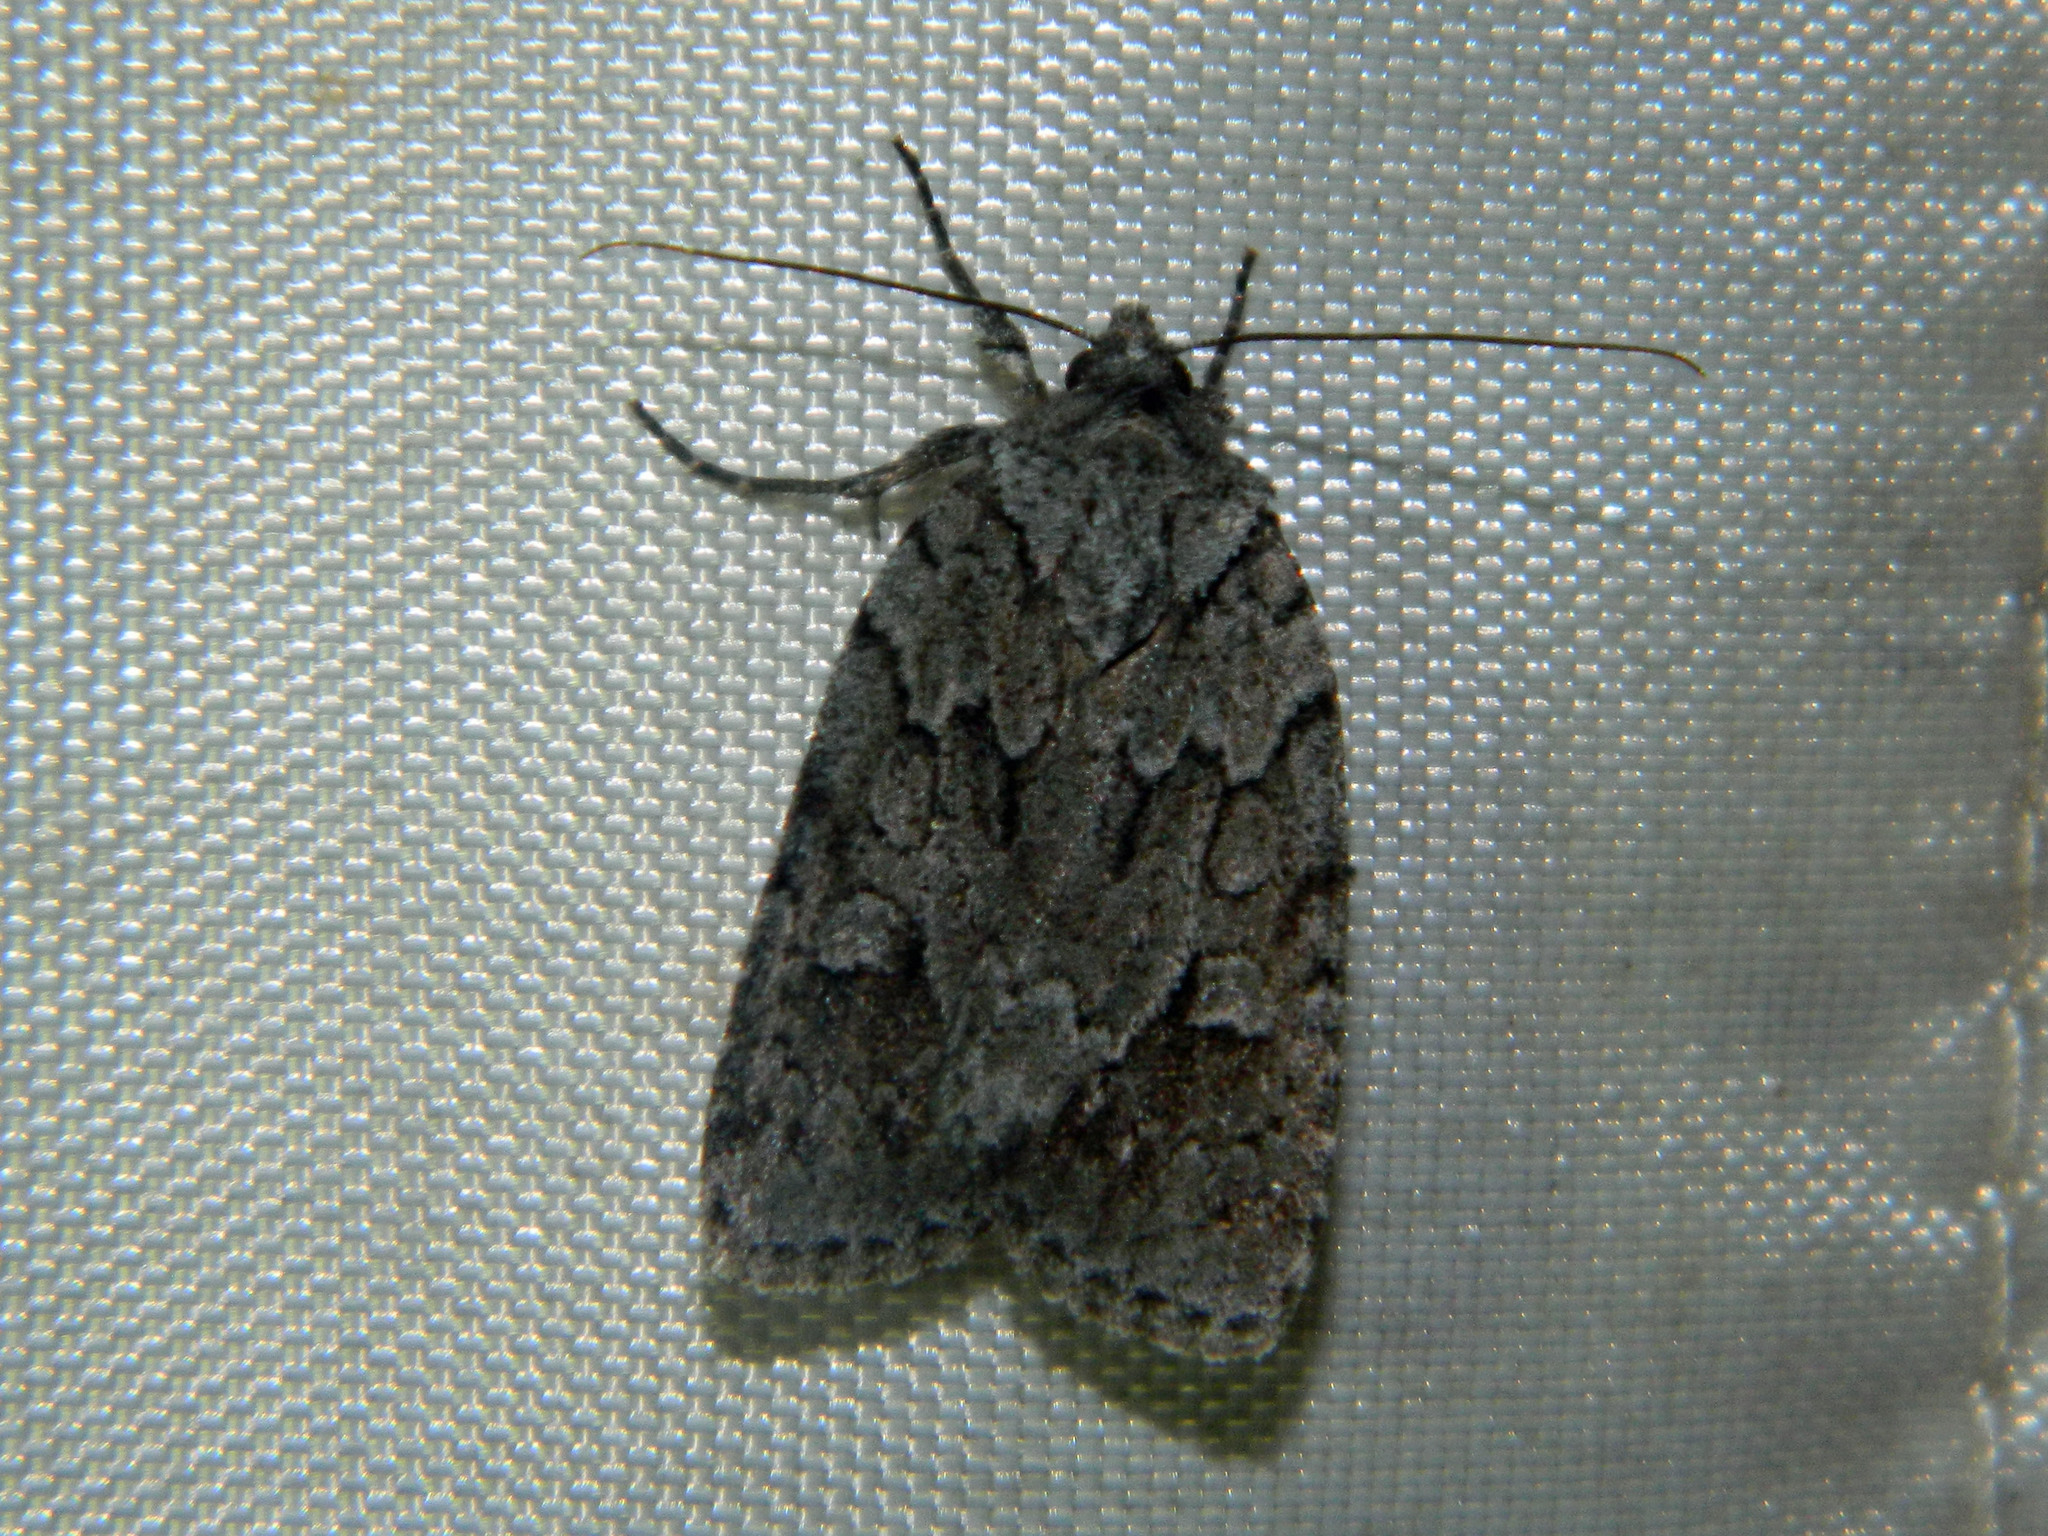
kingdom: Animalia
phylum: Arthropoda
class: Insecta
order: Lepidoptera
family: Noctuidae
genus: Sympistis
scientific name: Sympistis dentata
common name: Blueberry sallow
